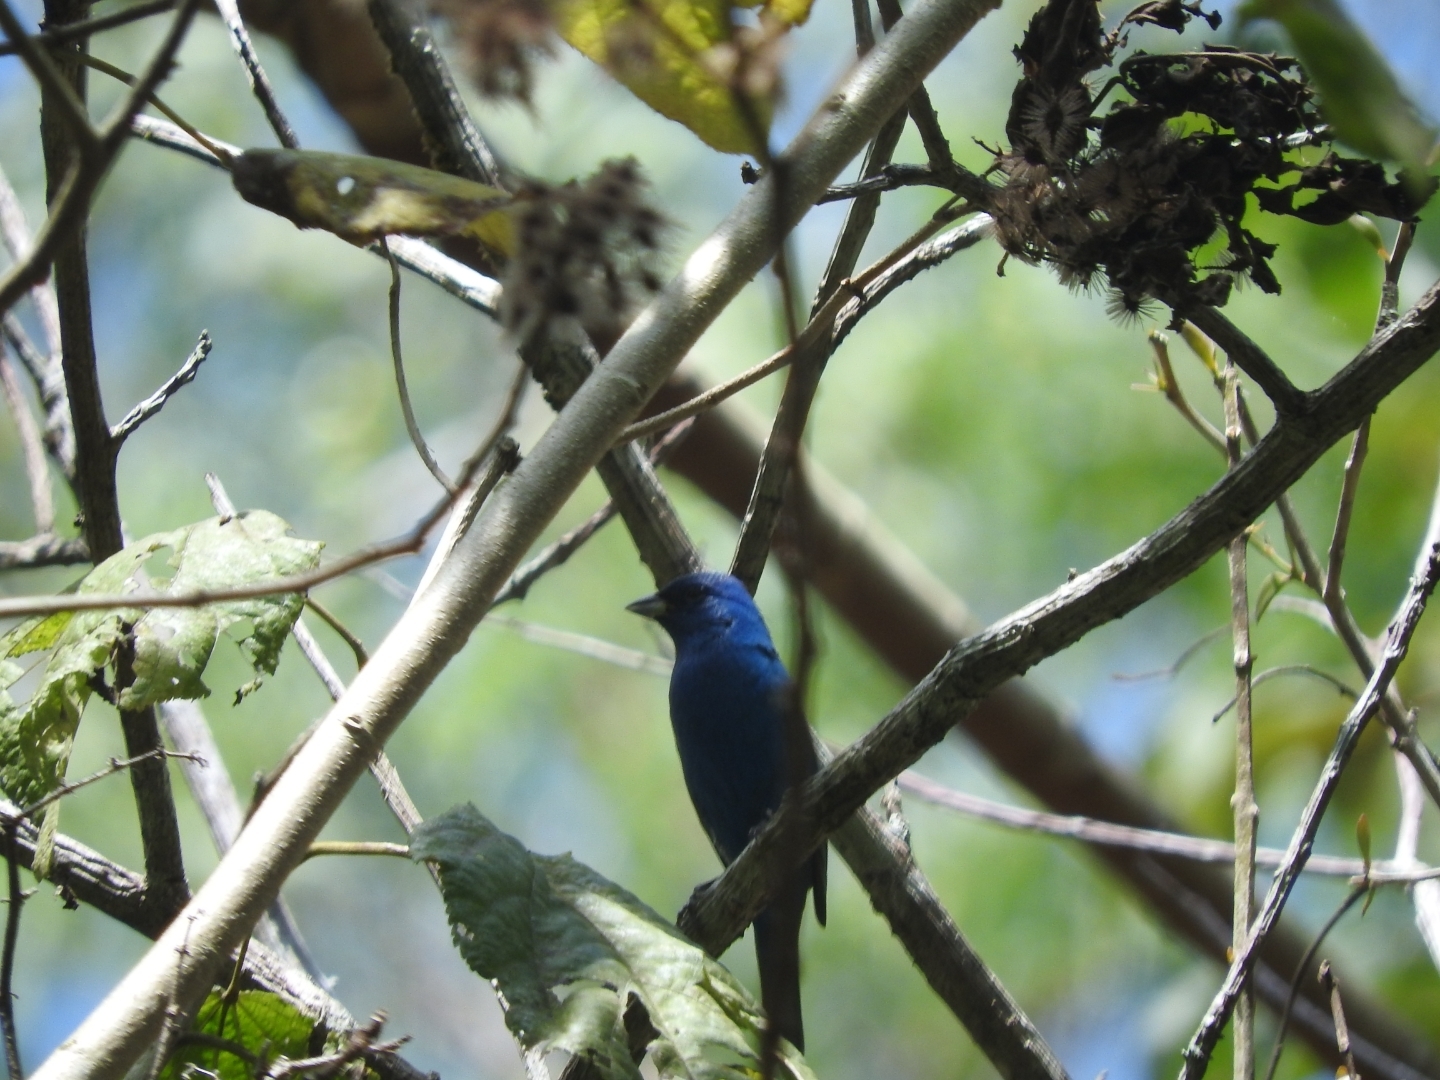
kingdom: Animalia
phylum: Chordata
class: Aves
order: Passeriformes
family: Cardinalidae
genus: Passerina
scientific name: Passerina cyanea
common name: Indigo bunting
